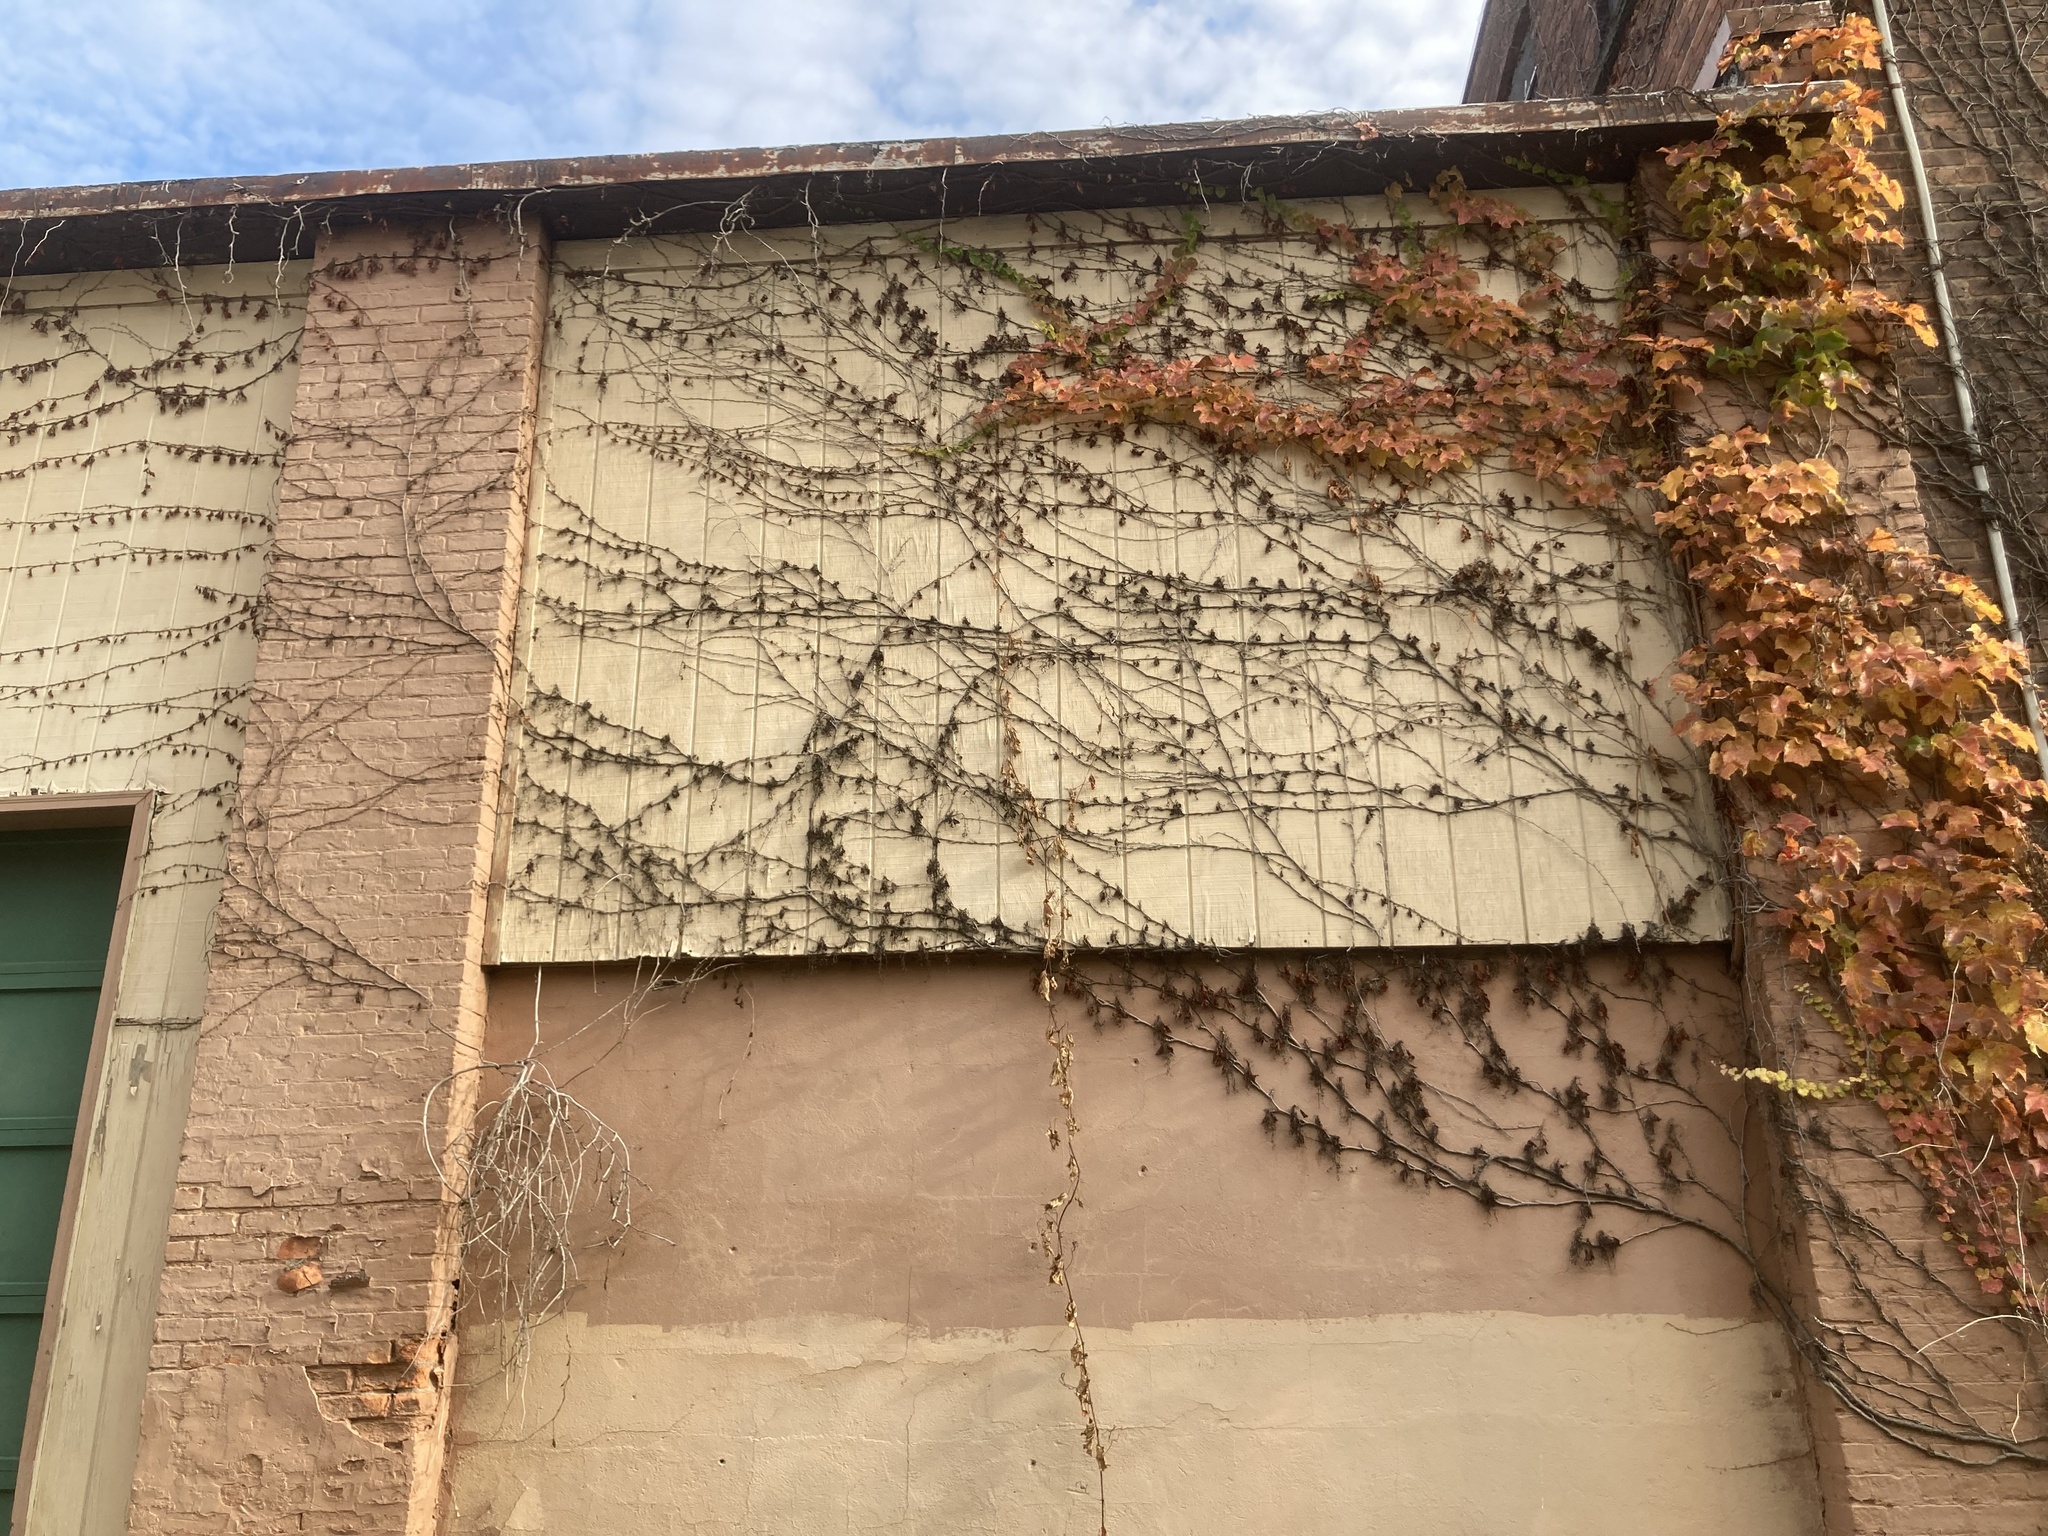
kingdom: Plantae
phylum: Tracheophyta
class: Magnoliopsida
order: Vitales
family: Vitaceae
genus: Parthenocissus
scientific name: Parthenocissus tricuspidata
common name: Boston ivy
